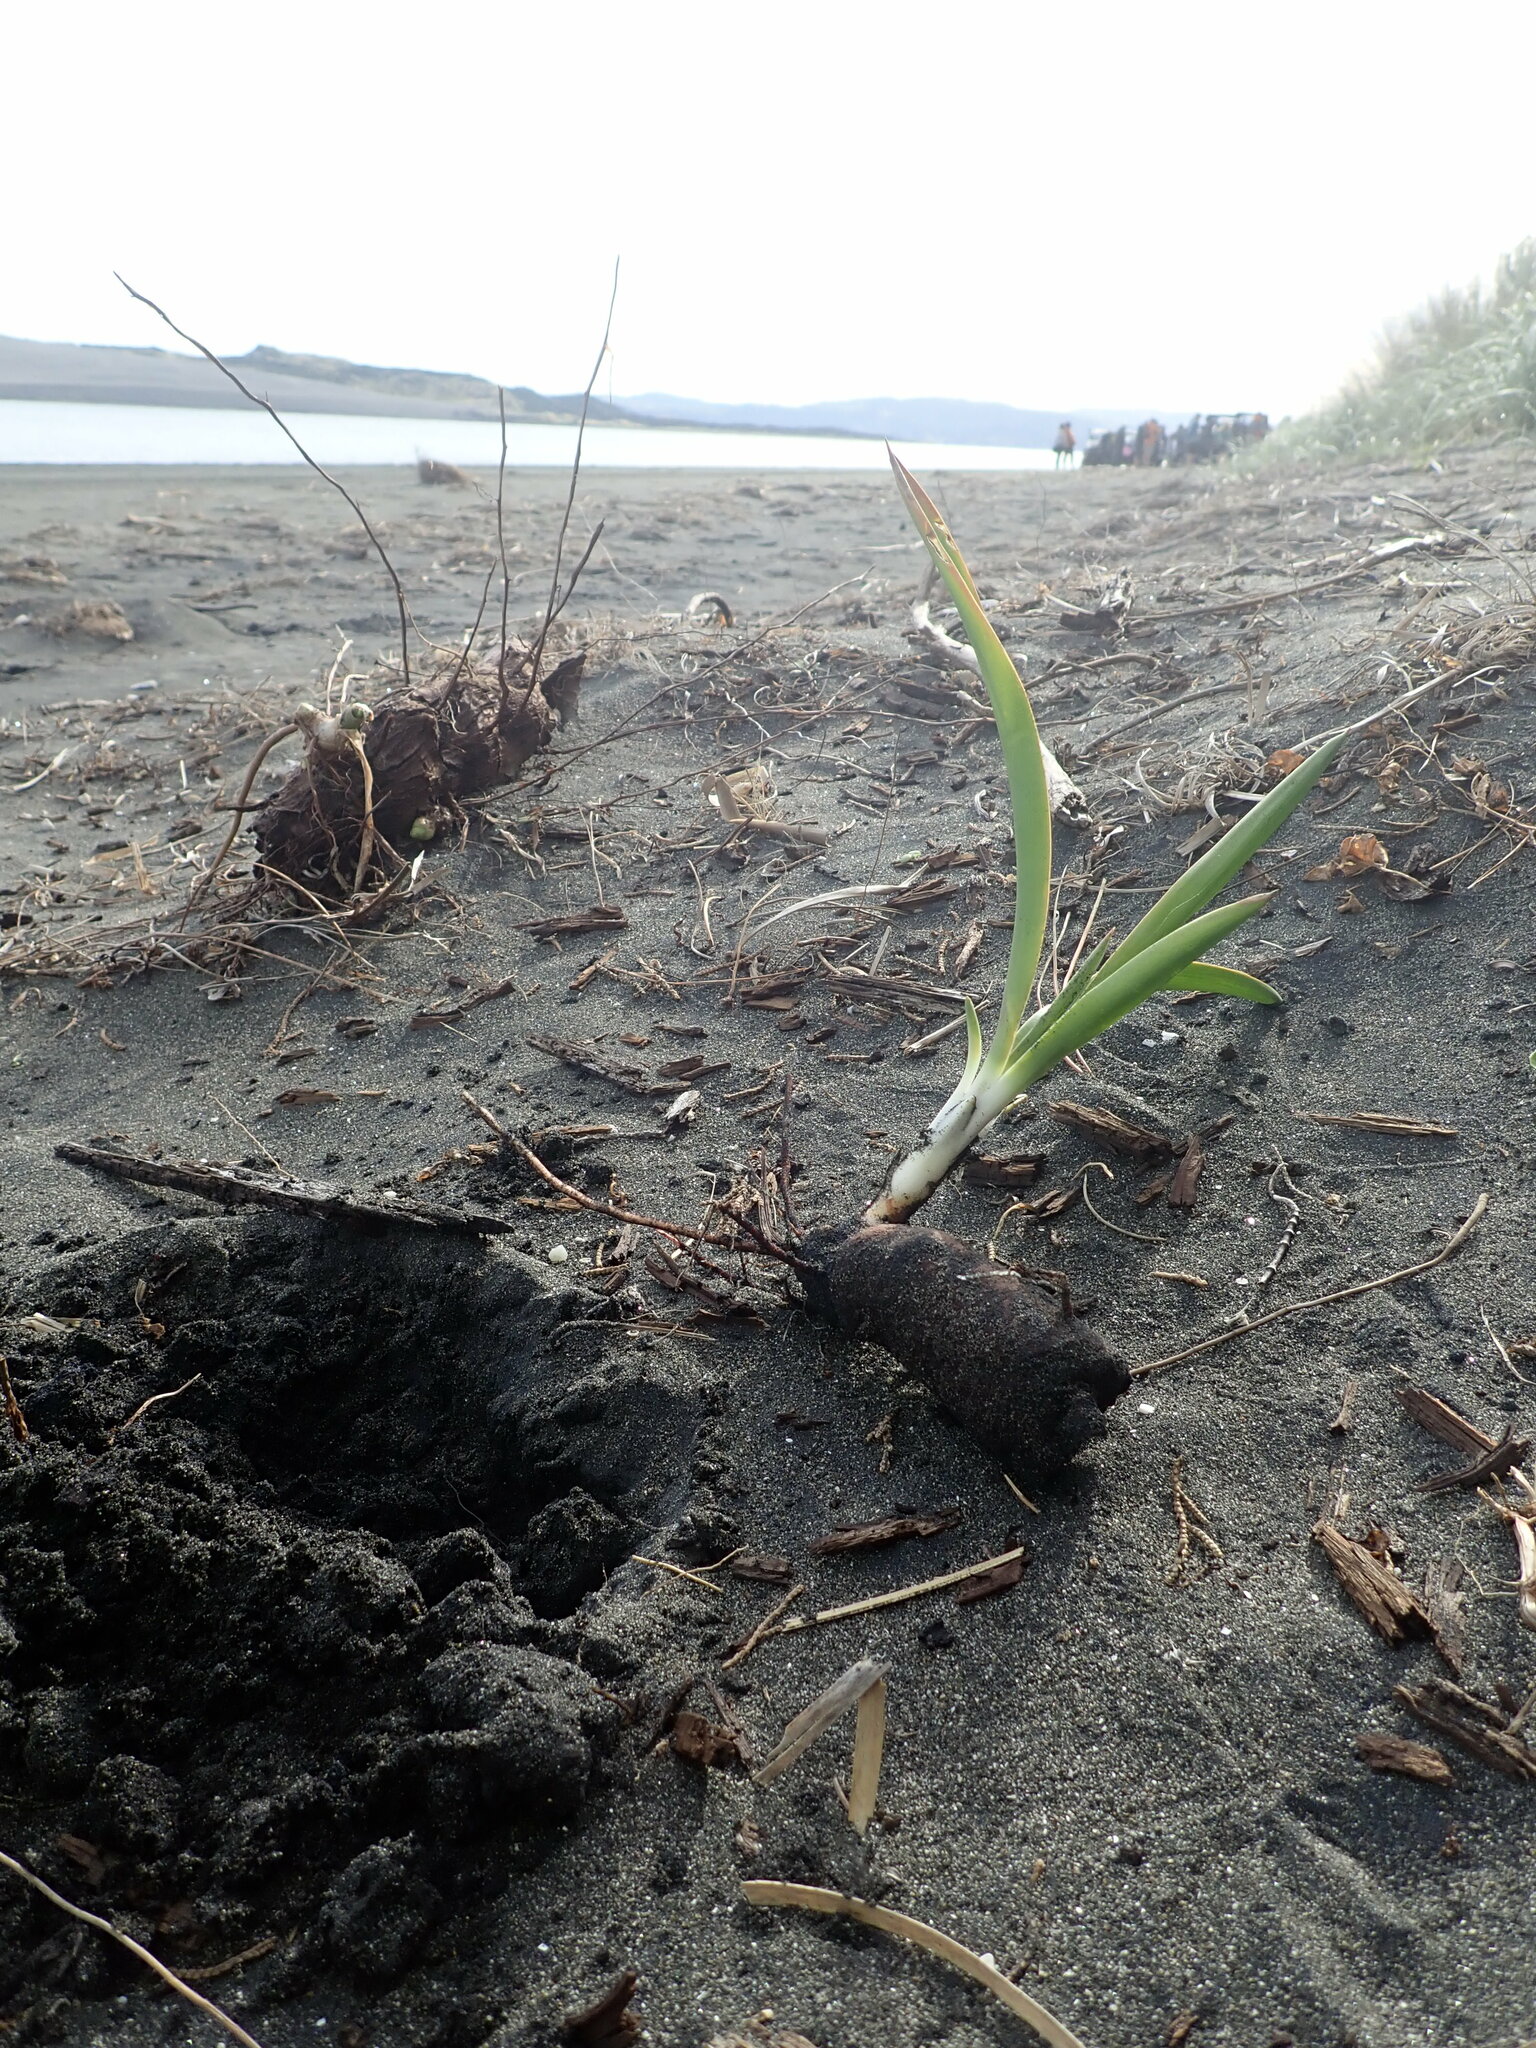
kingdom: Plantae
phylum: Tracheophyta
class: Liliopsida
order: Asparagales
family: Amaryllidaceae
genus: Agapanthus
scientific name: Agapanthus praecox
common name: African-lily
